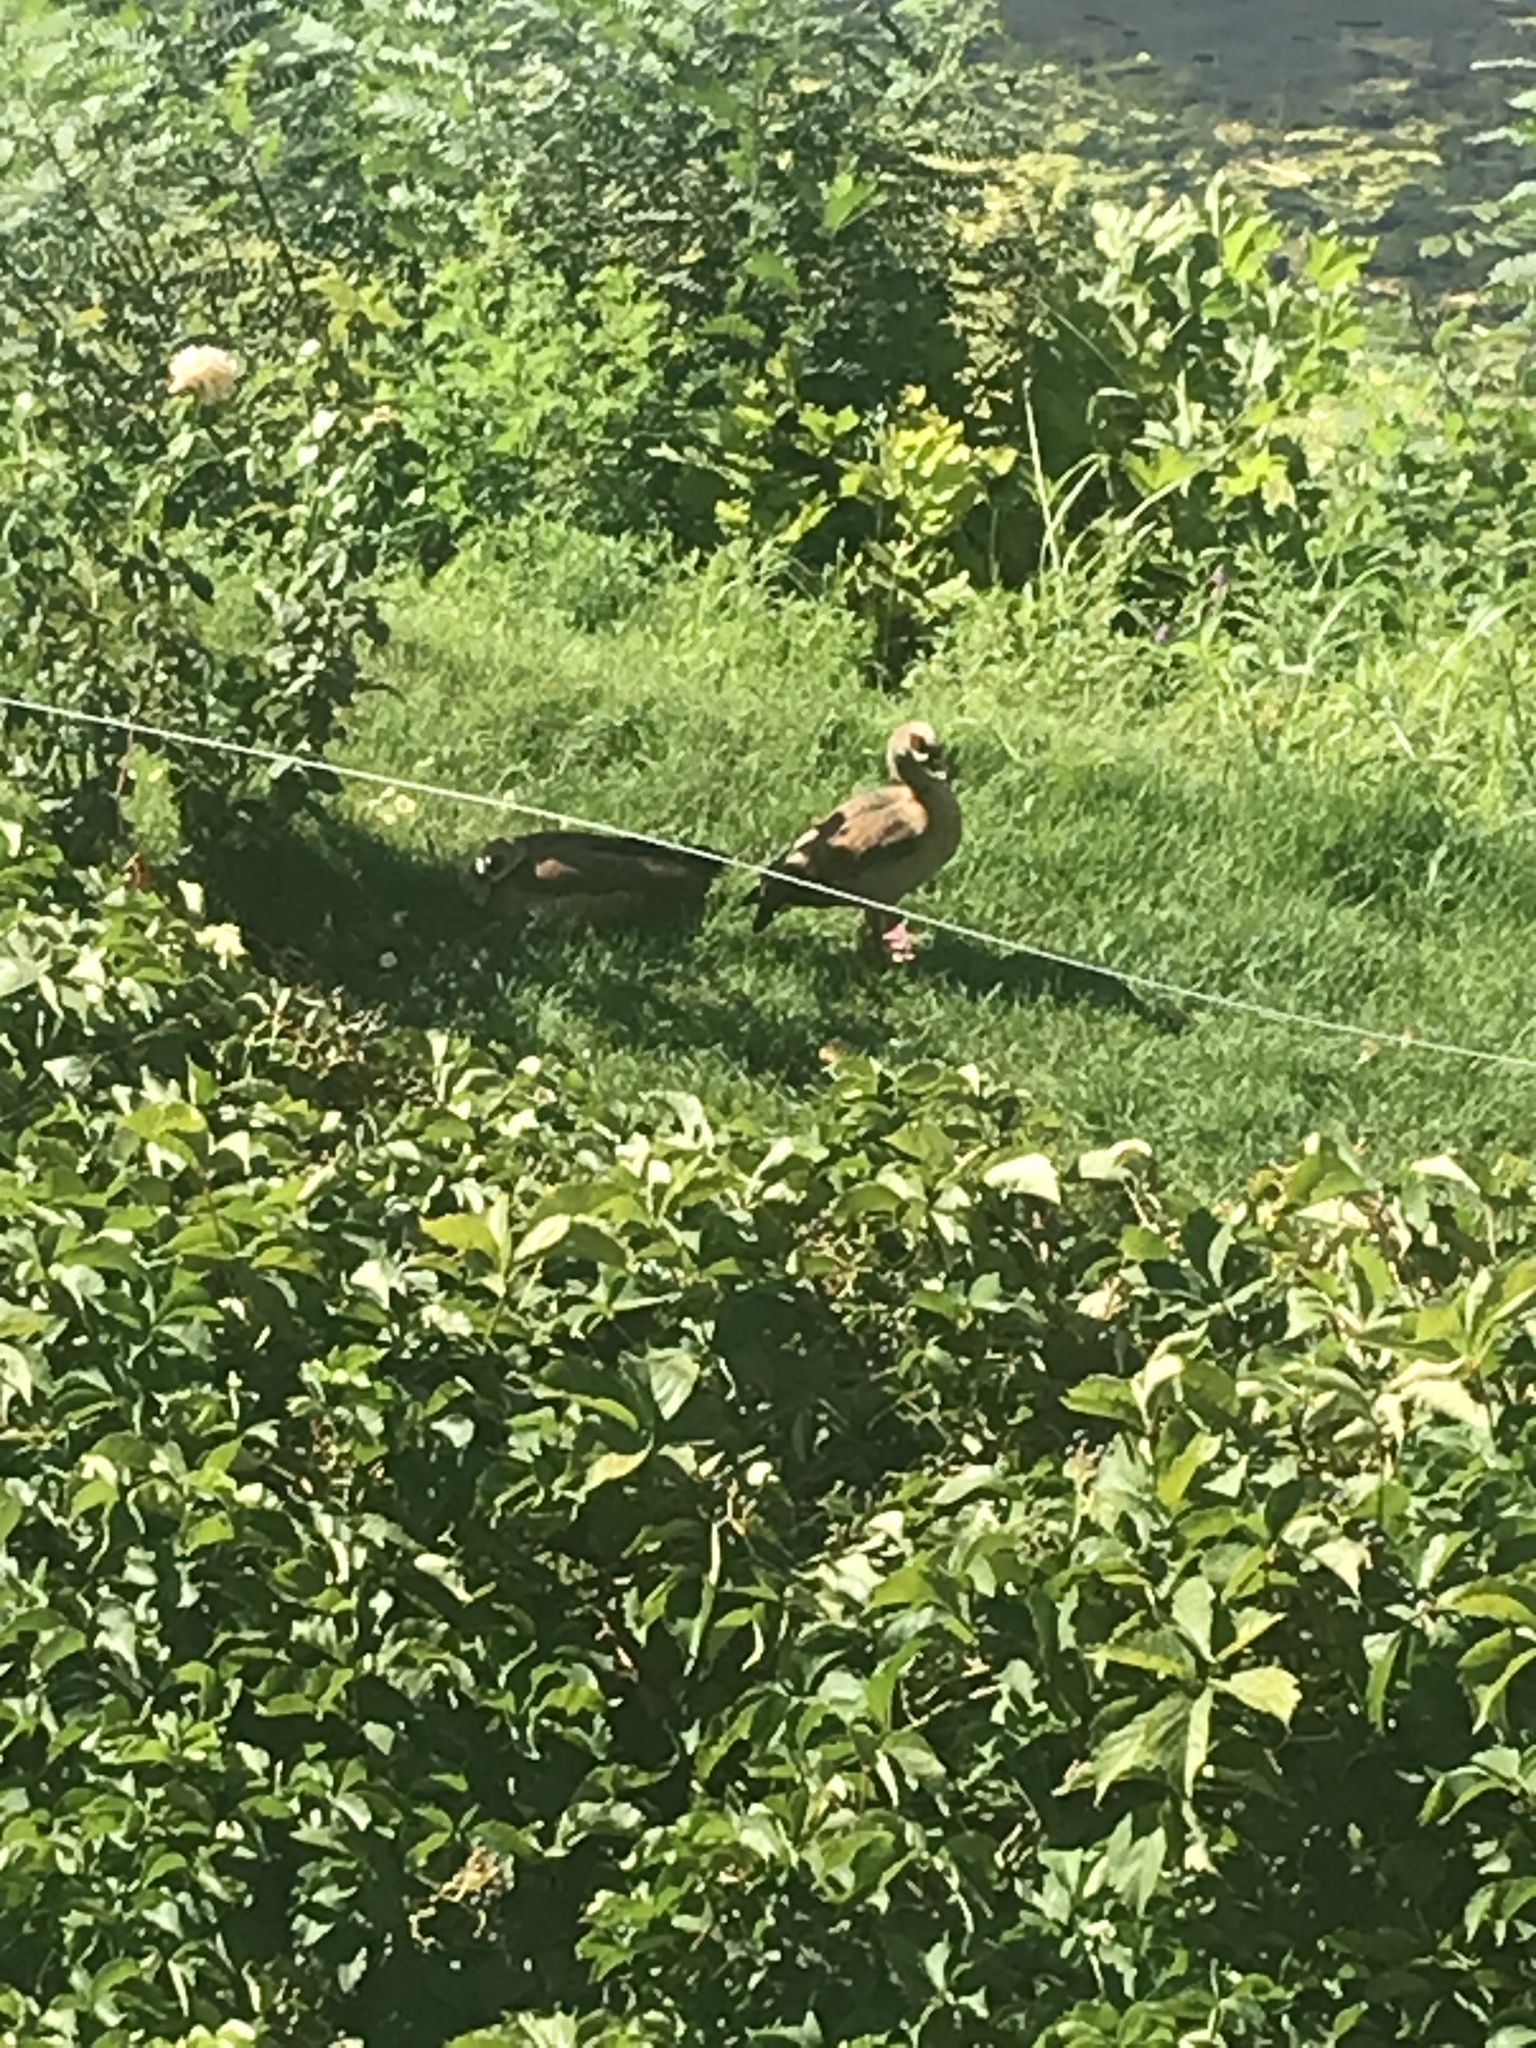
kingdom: Animalia
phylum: Chordata
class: Aves
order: Anseriformes
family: Anatidae
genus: Alopochen
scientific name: Alopochen aegyptiaca
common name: Egyptian goose
